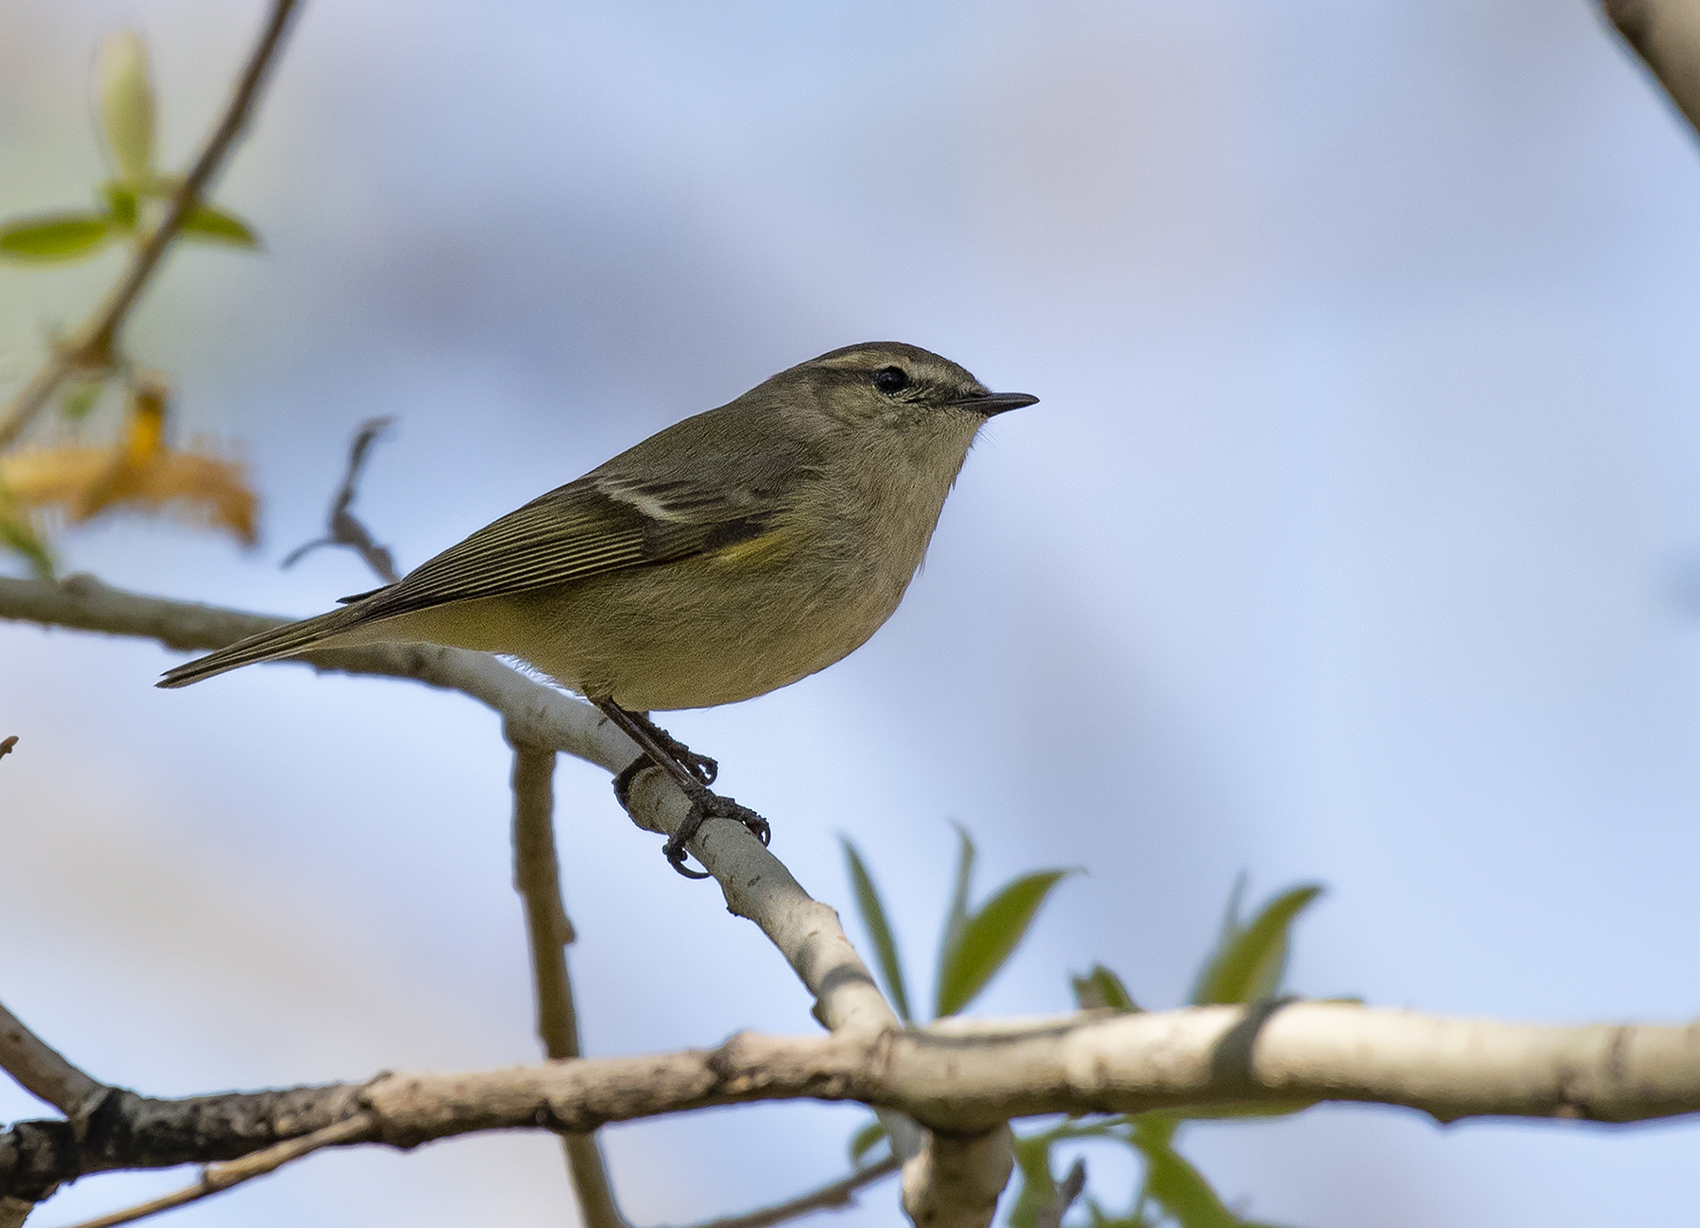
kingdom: Animalia
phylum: Chordata
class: Aves
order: Passeriformes
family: Phylloscopidae
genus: Phylloscopus
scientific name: Phylloscopus humei
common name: Hume's leaf warbler
